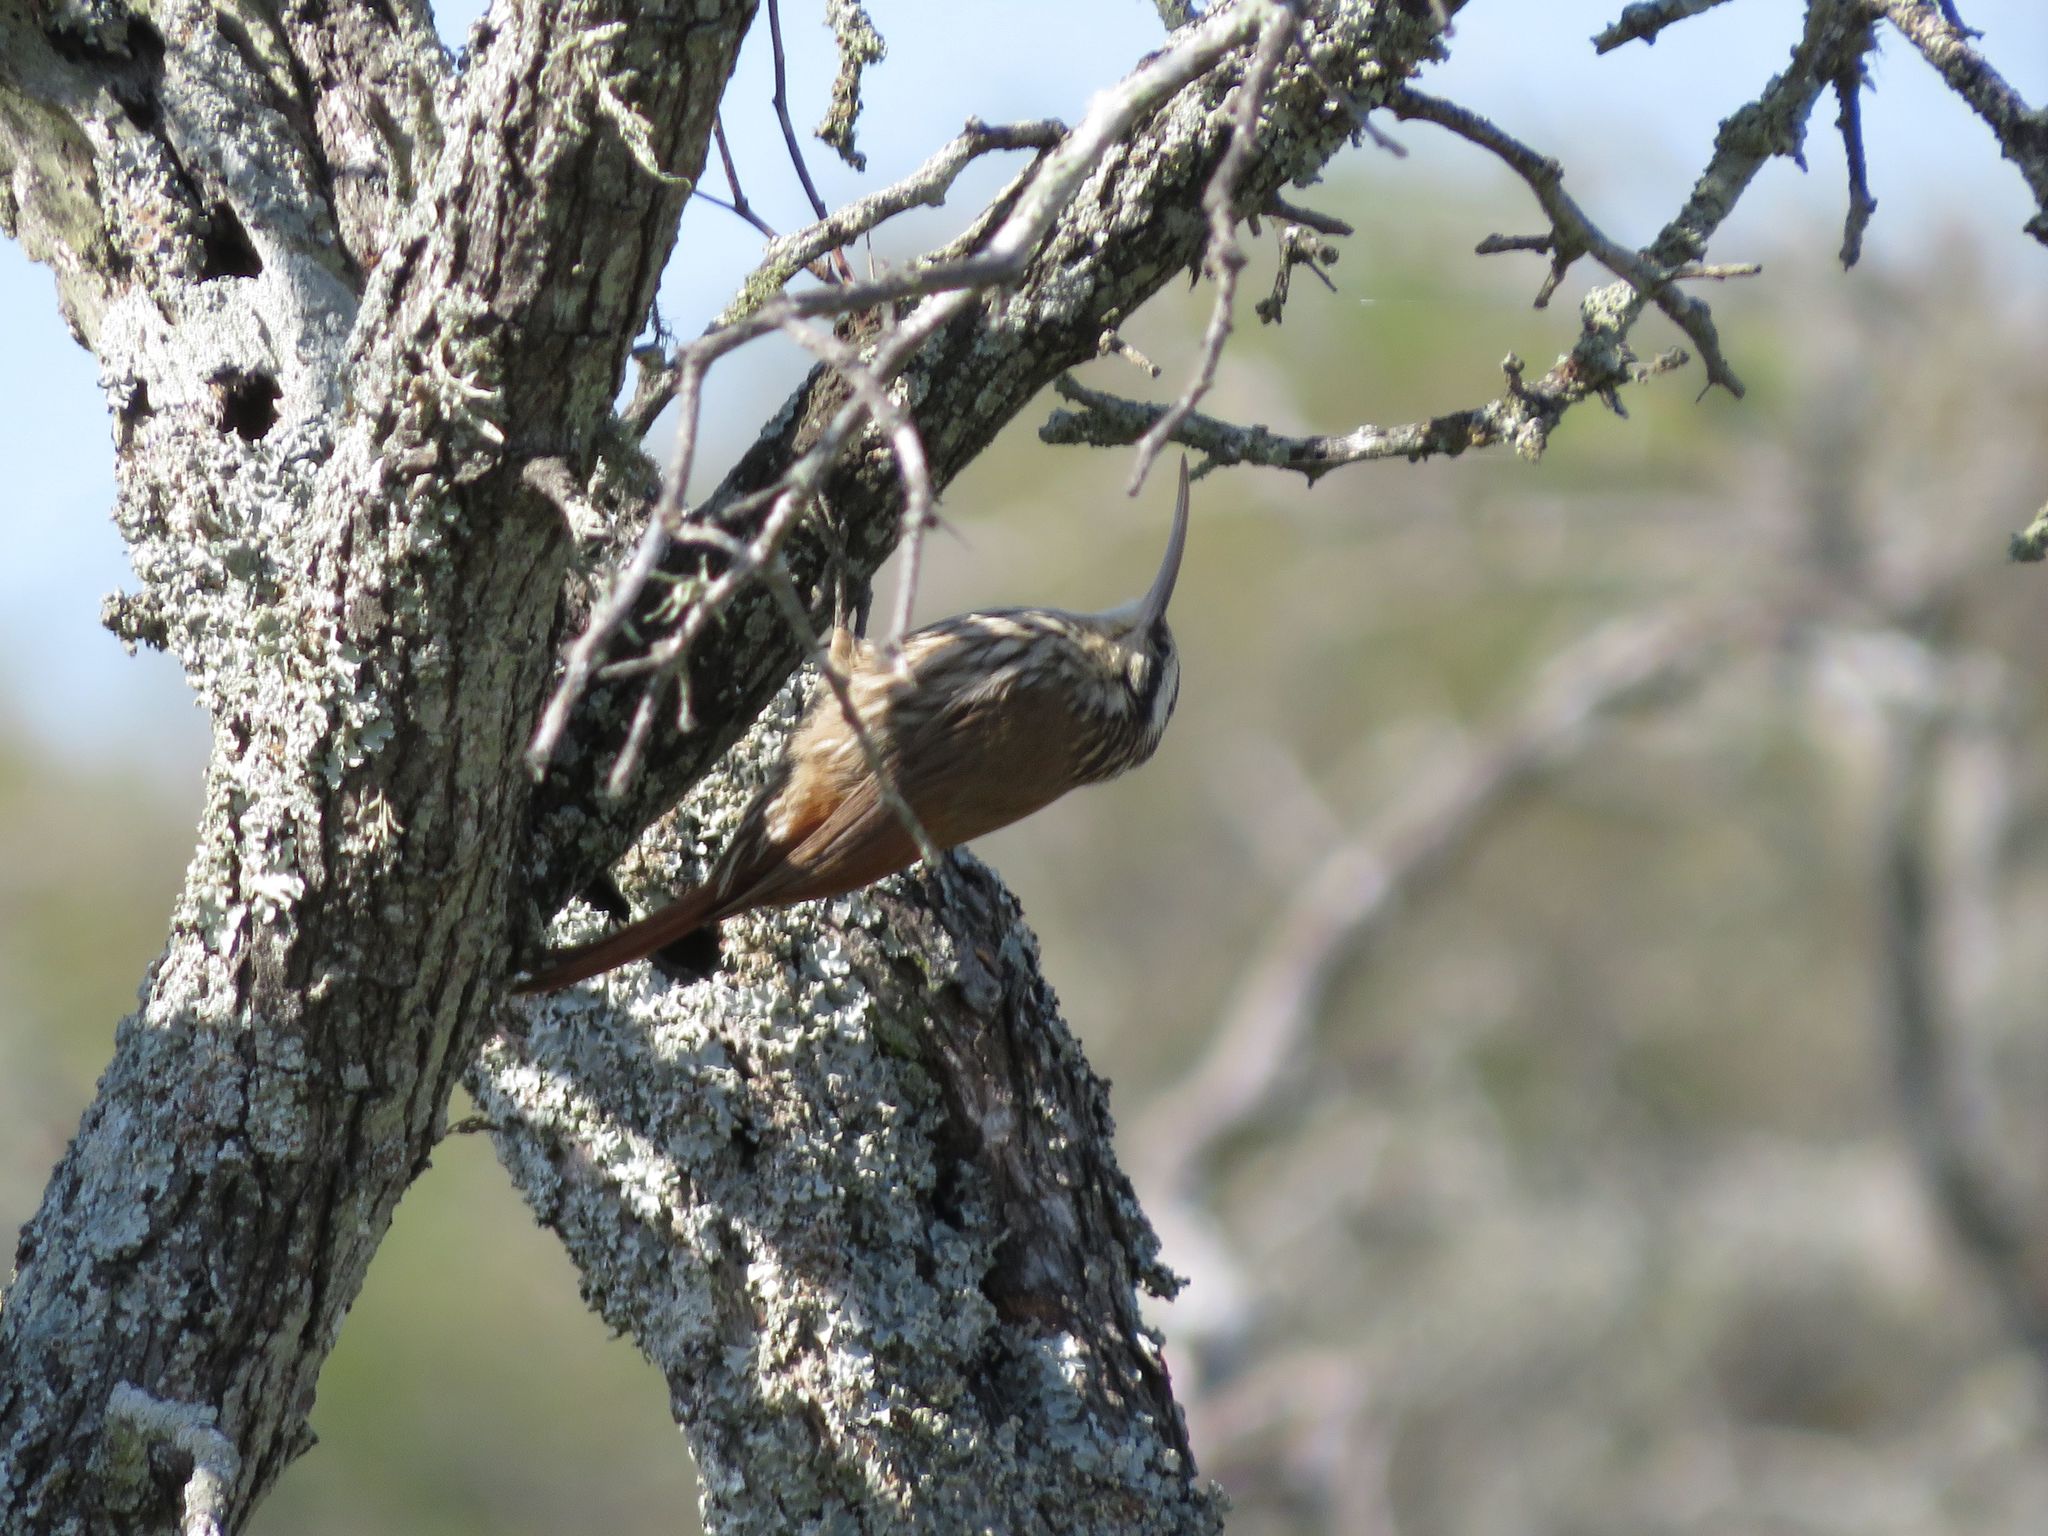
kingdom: Animalia
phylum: Chordata
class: Aves
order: Passeriformes
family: Furnariidae
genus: Lepidocolaptes
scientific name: Lepidocolaptes angustirostris
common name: Narrow-billed woodcreeper
